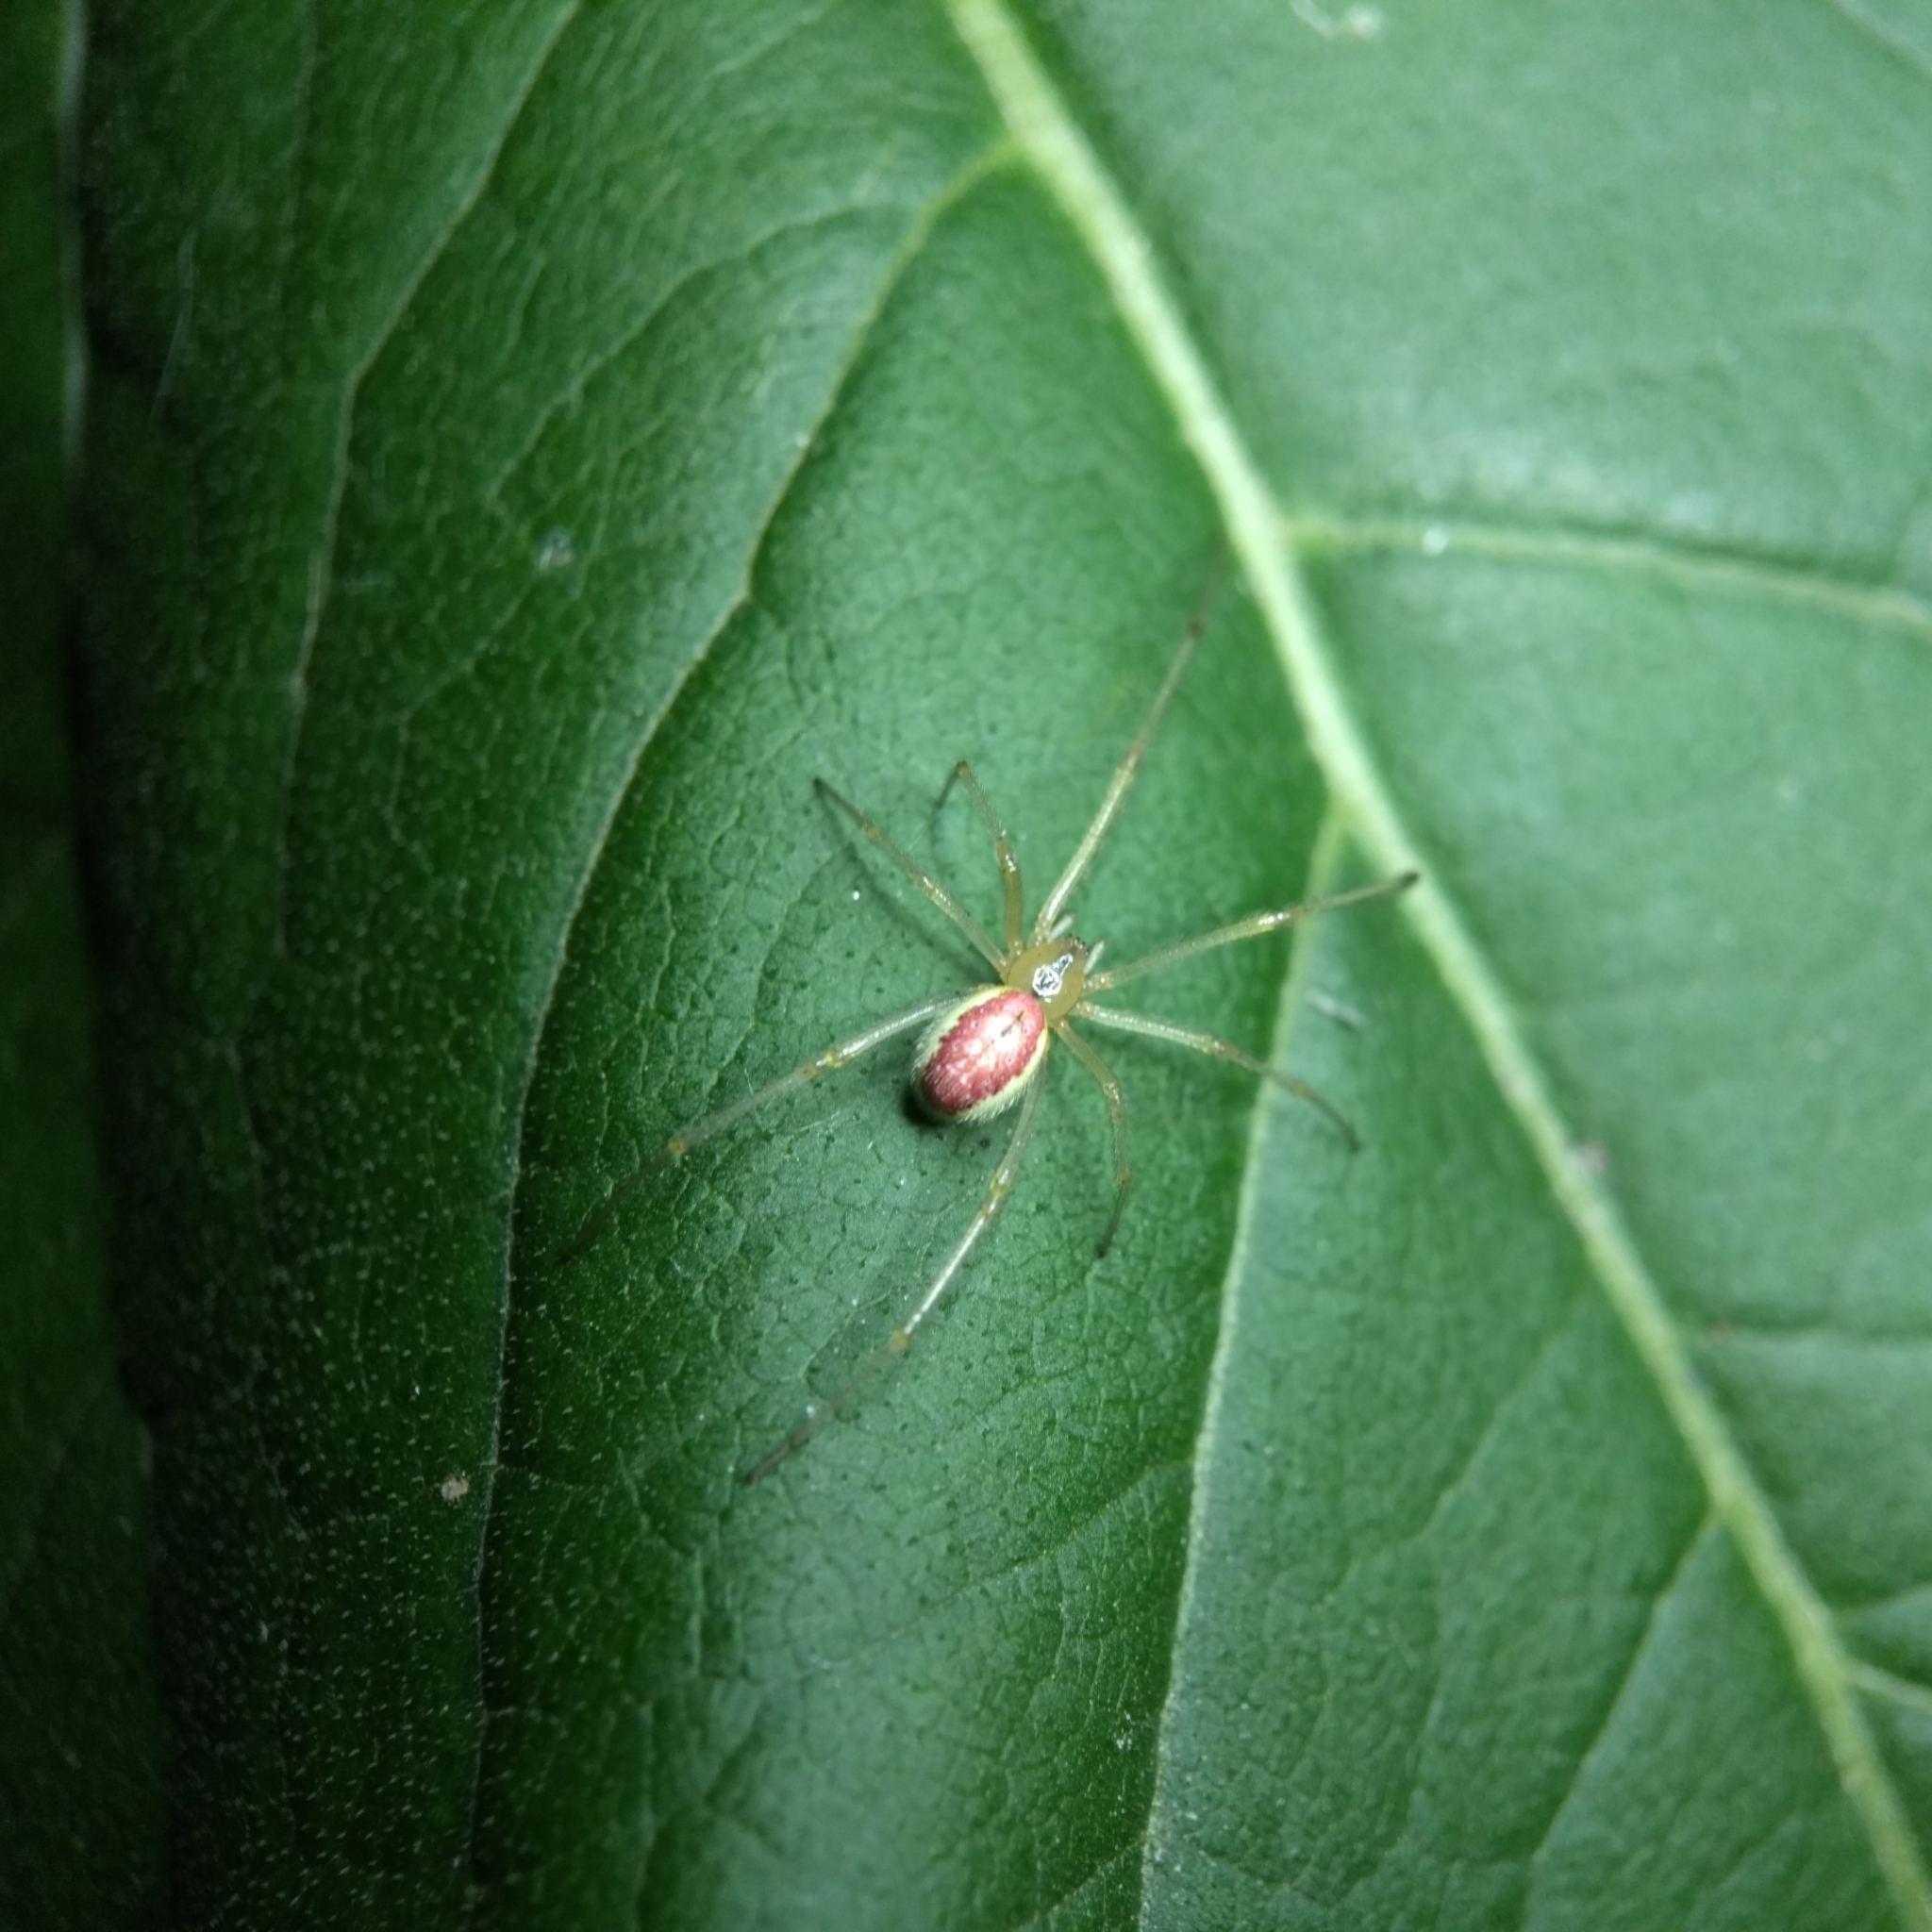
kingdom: Animalia
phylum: Arthropoda
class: Arachnida
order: Araneae
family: Theridiidae
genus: Enoplognatha
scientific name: Enoplognatha ovata
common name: Common candy-striped spider
